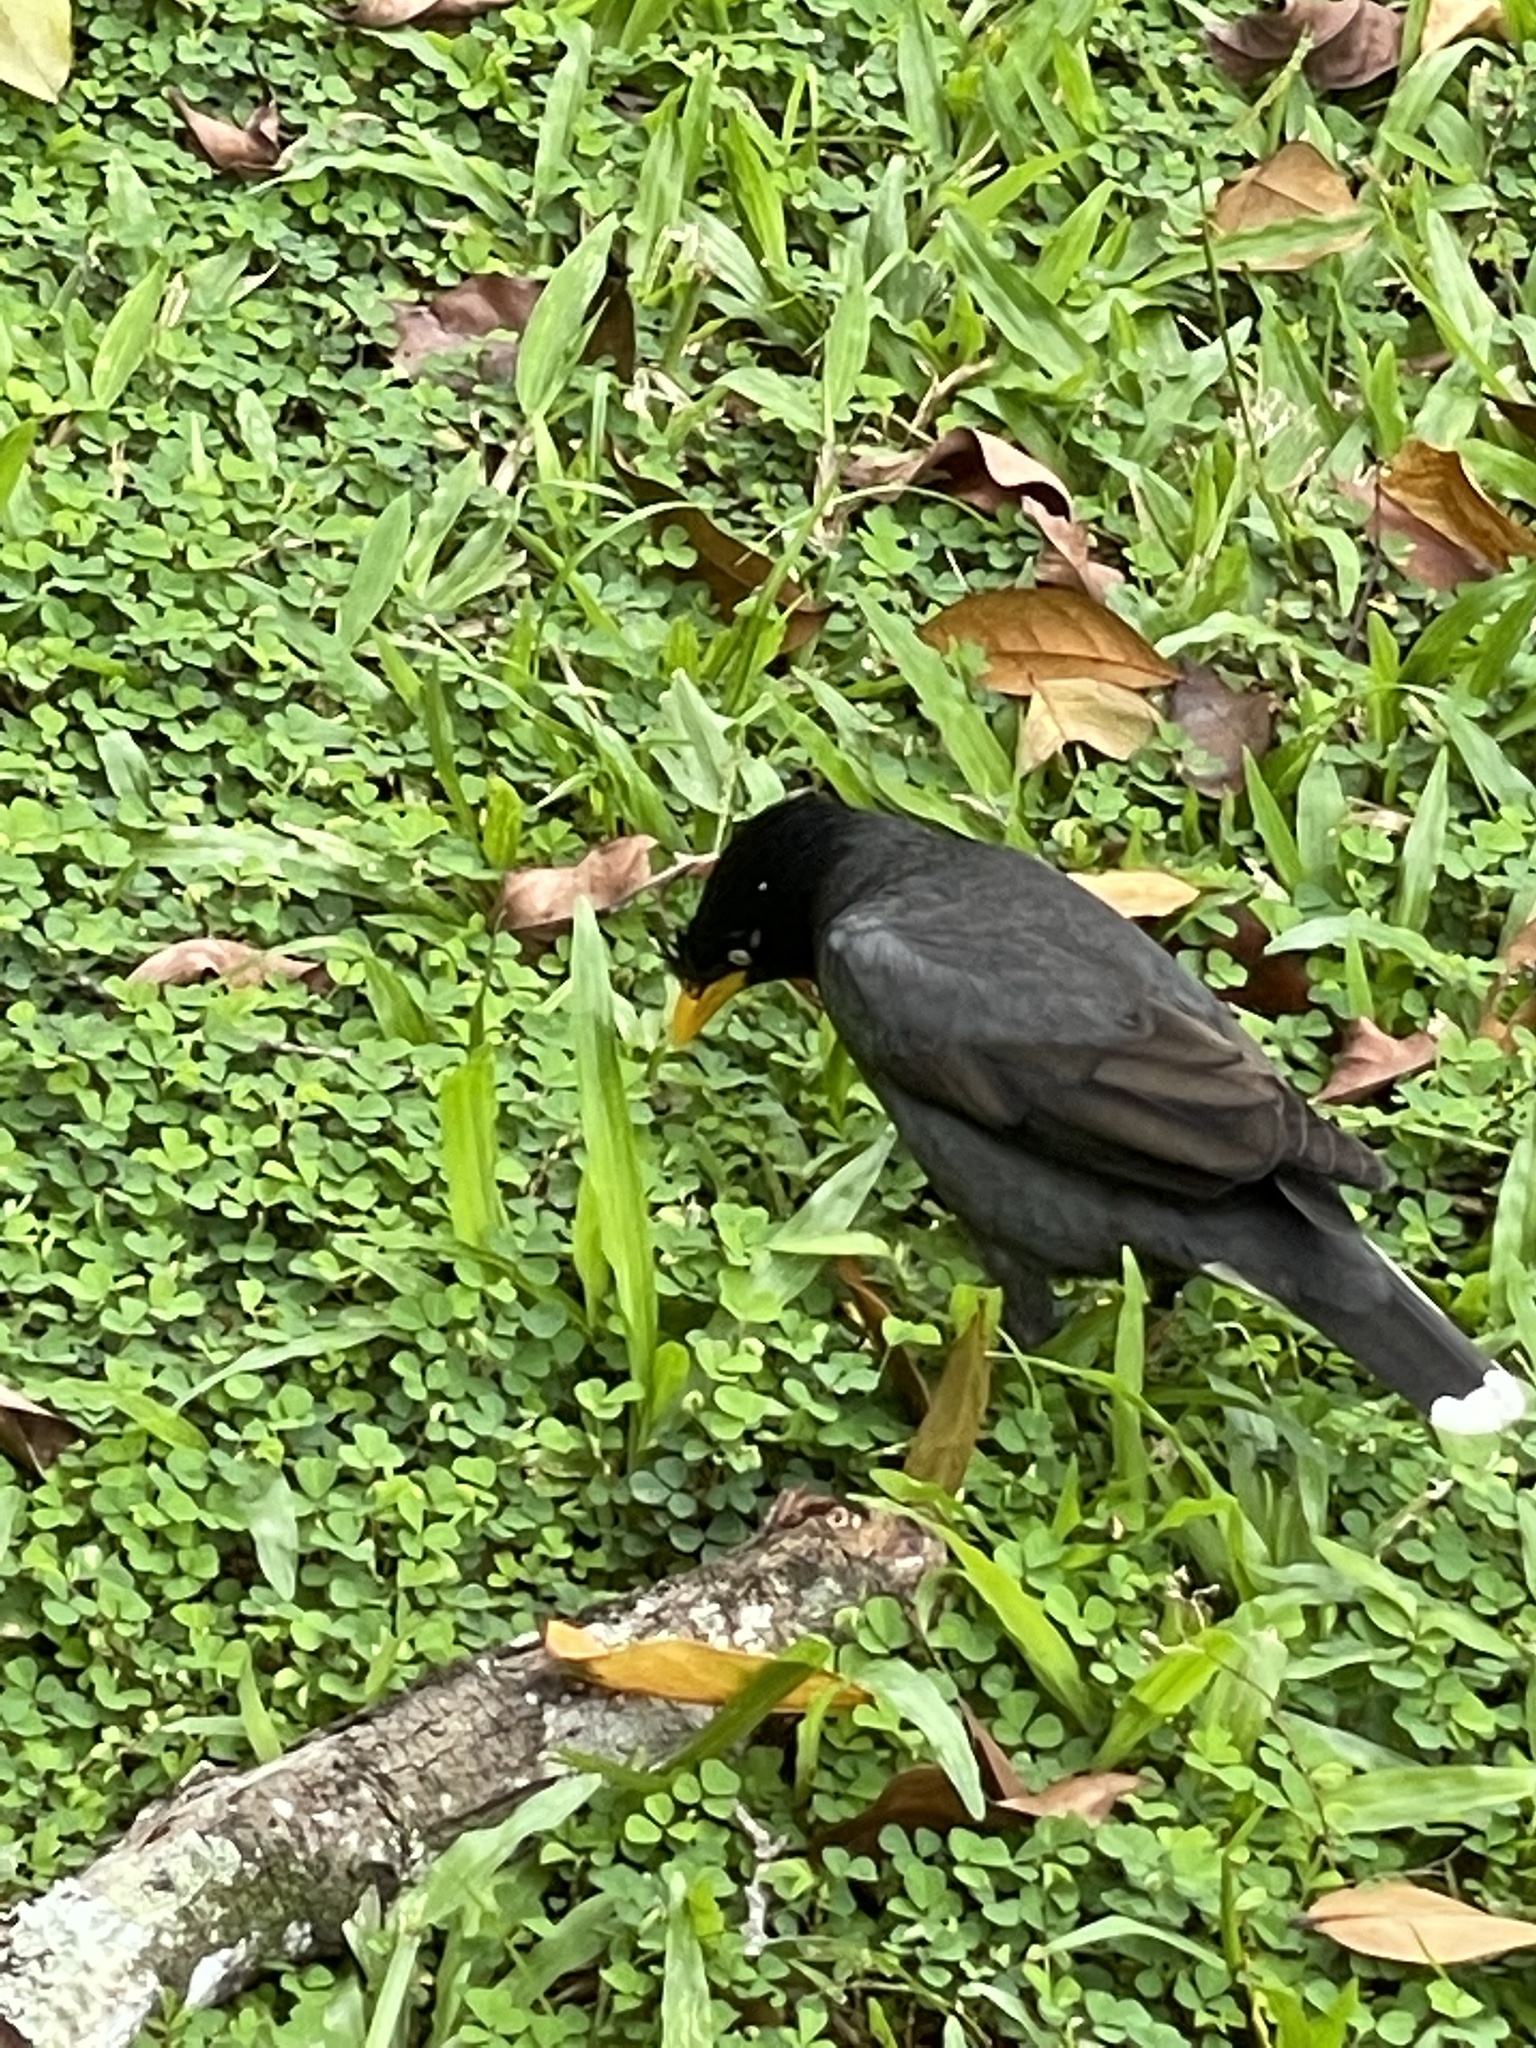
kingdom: Animalia
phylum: Chordata
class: Aves
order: Passeriformes
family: Sturnidae
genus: Acridotheres
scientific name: Acridotheres javanicus
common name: Javan myna
